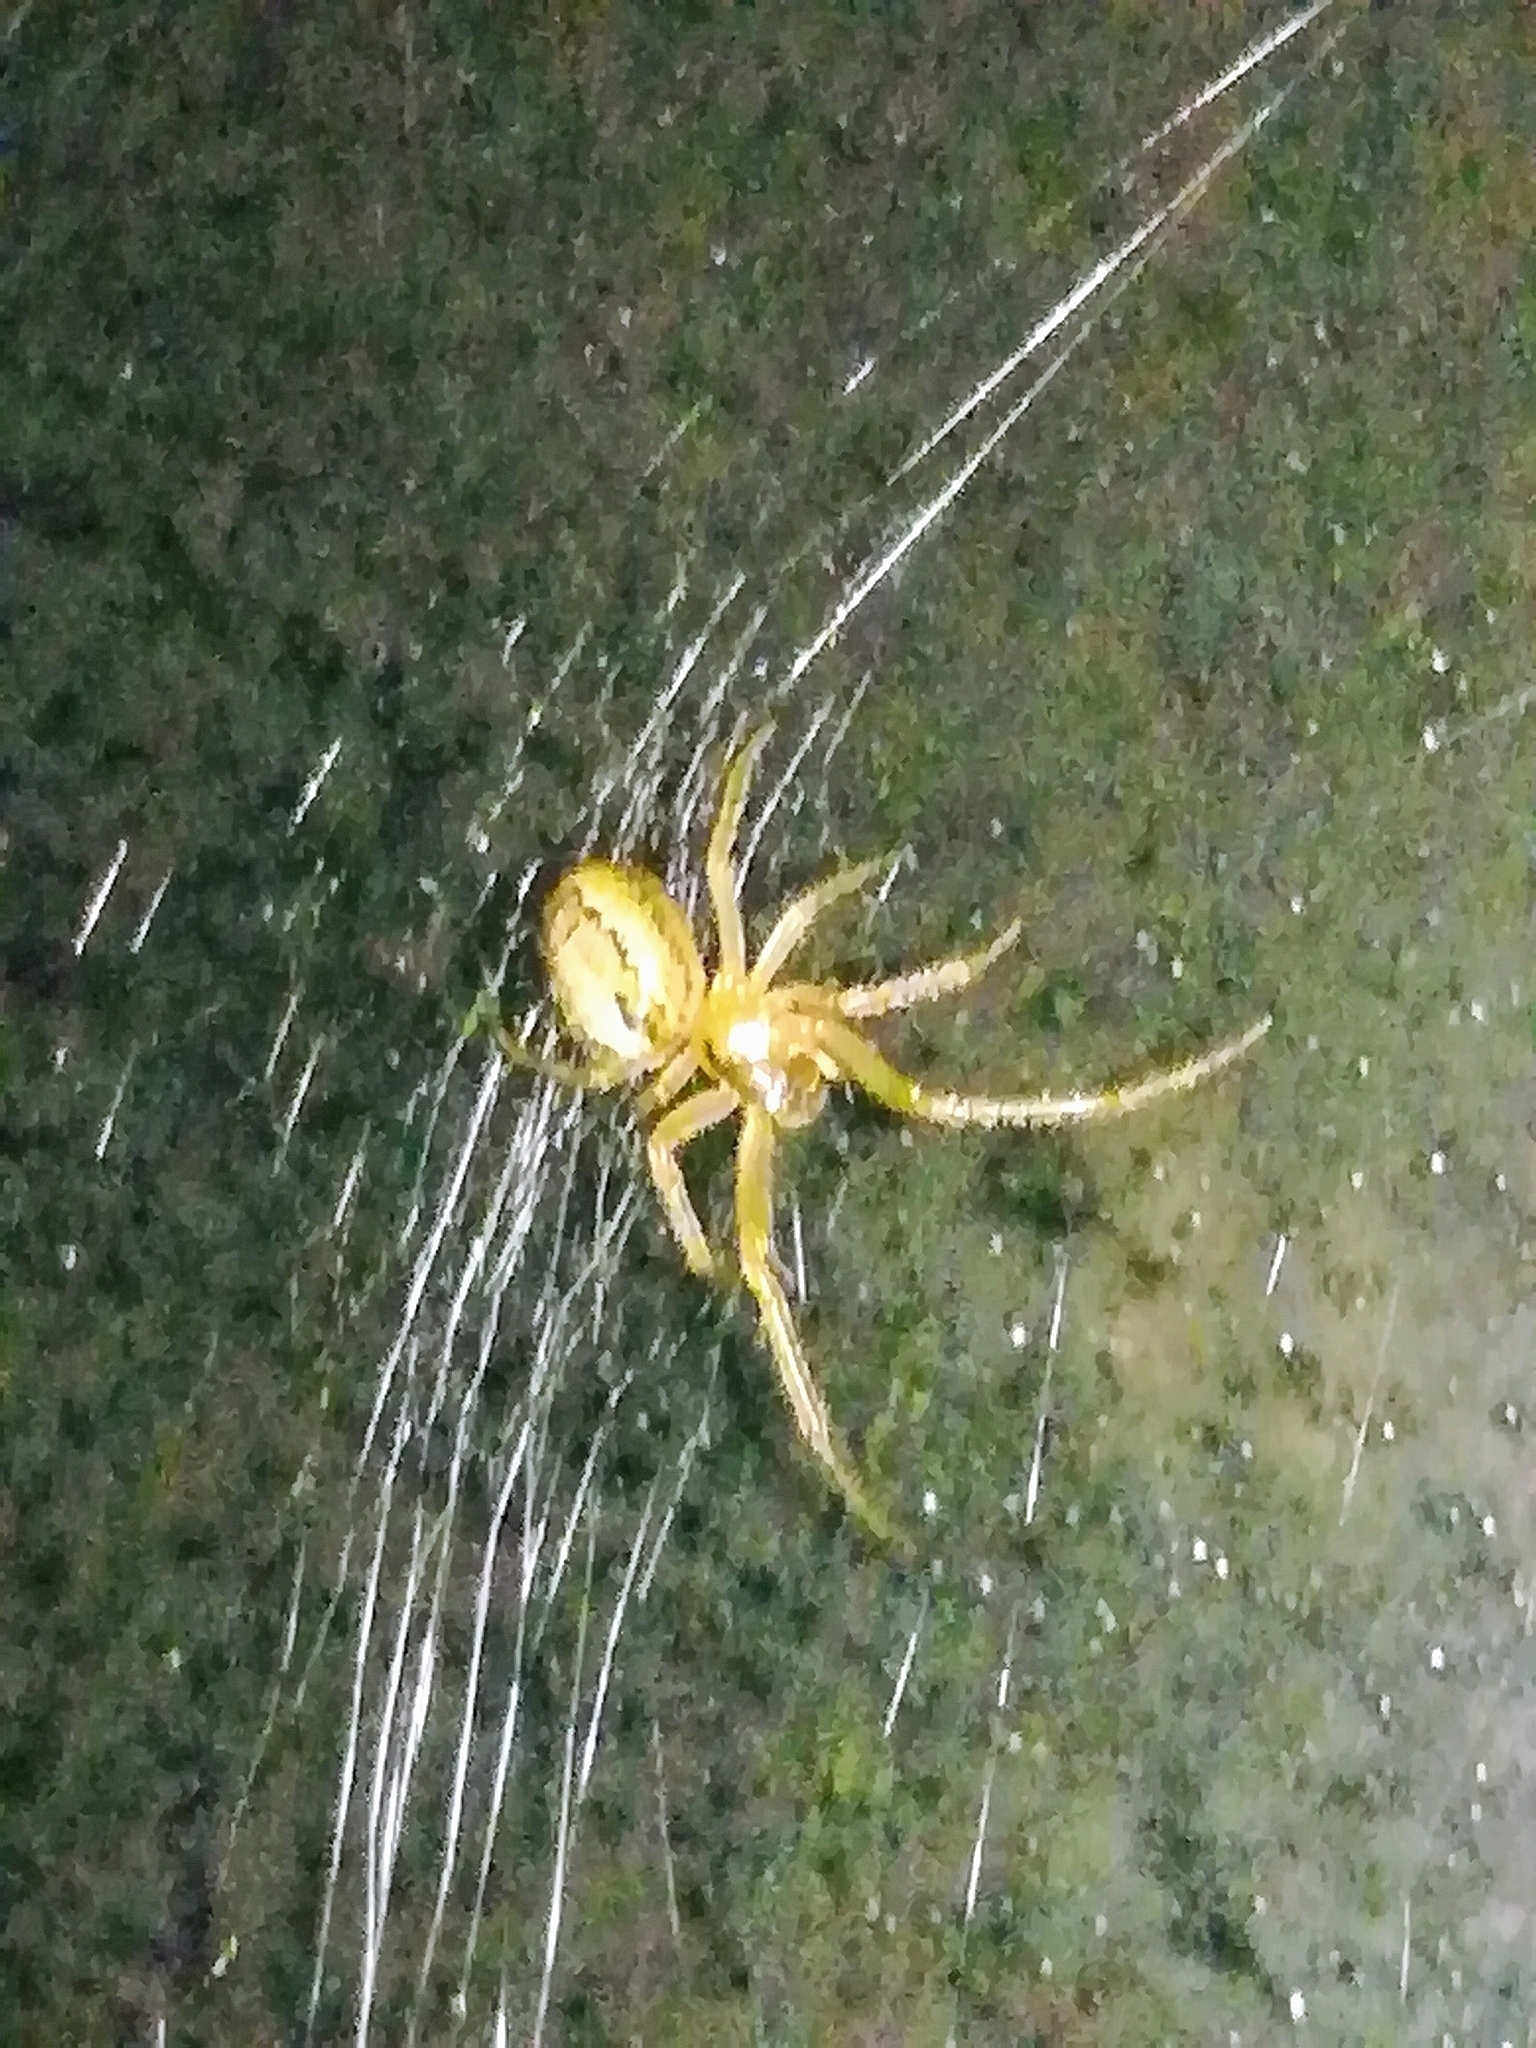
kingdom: Animalia
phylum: Arthropoda
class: Arachnida
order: Araneae
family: Araneidae
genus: Zygiella
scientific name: Zygiella x-notata
